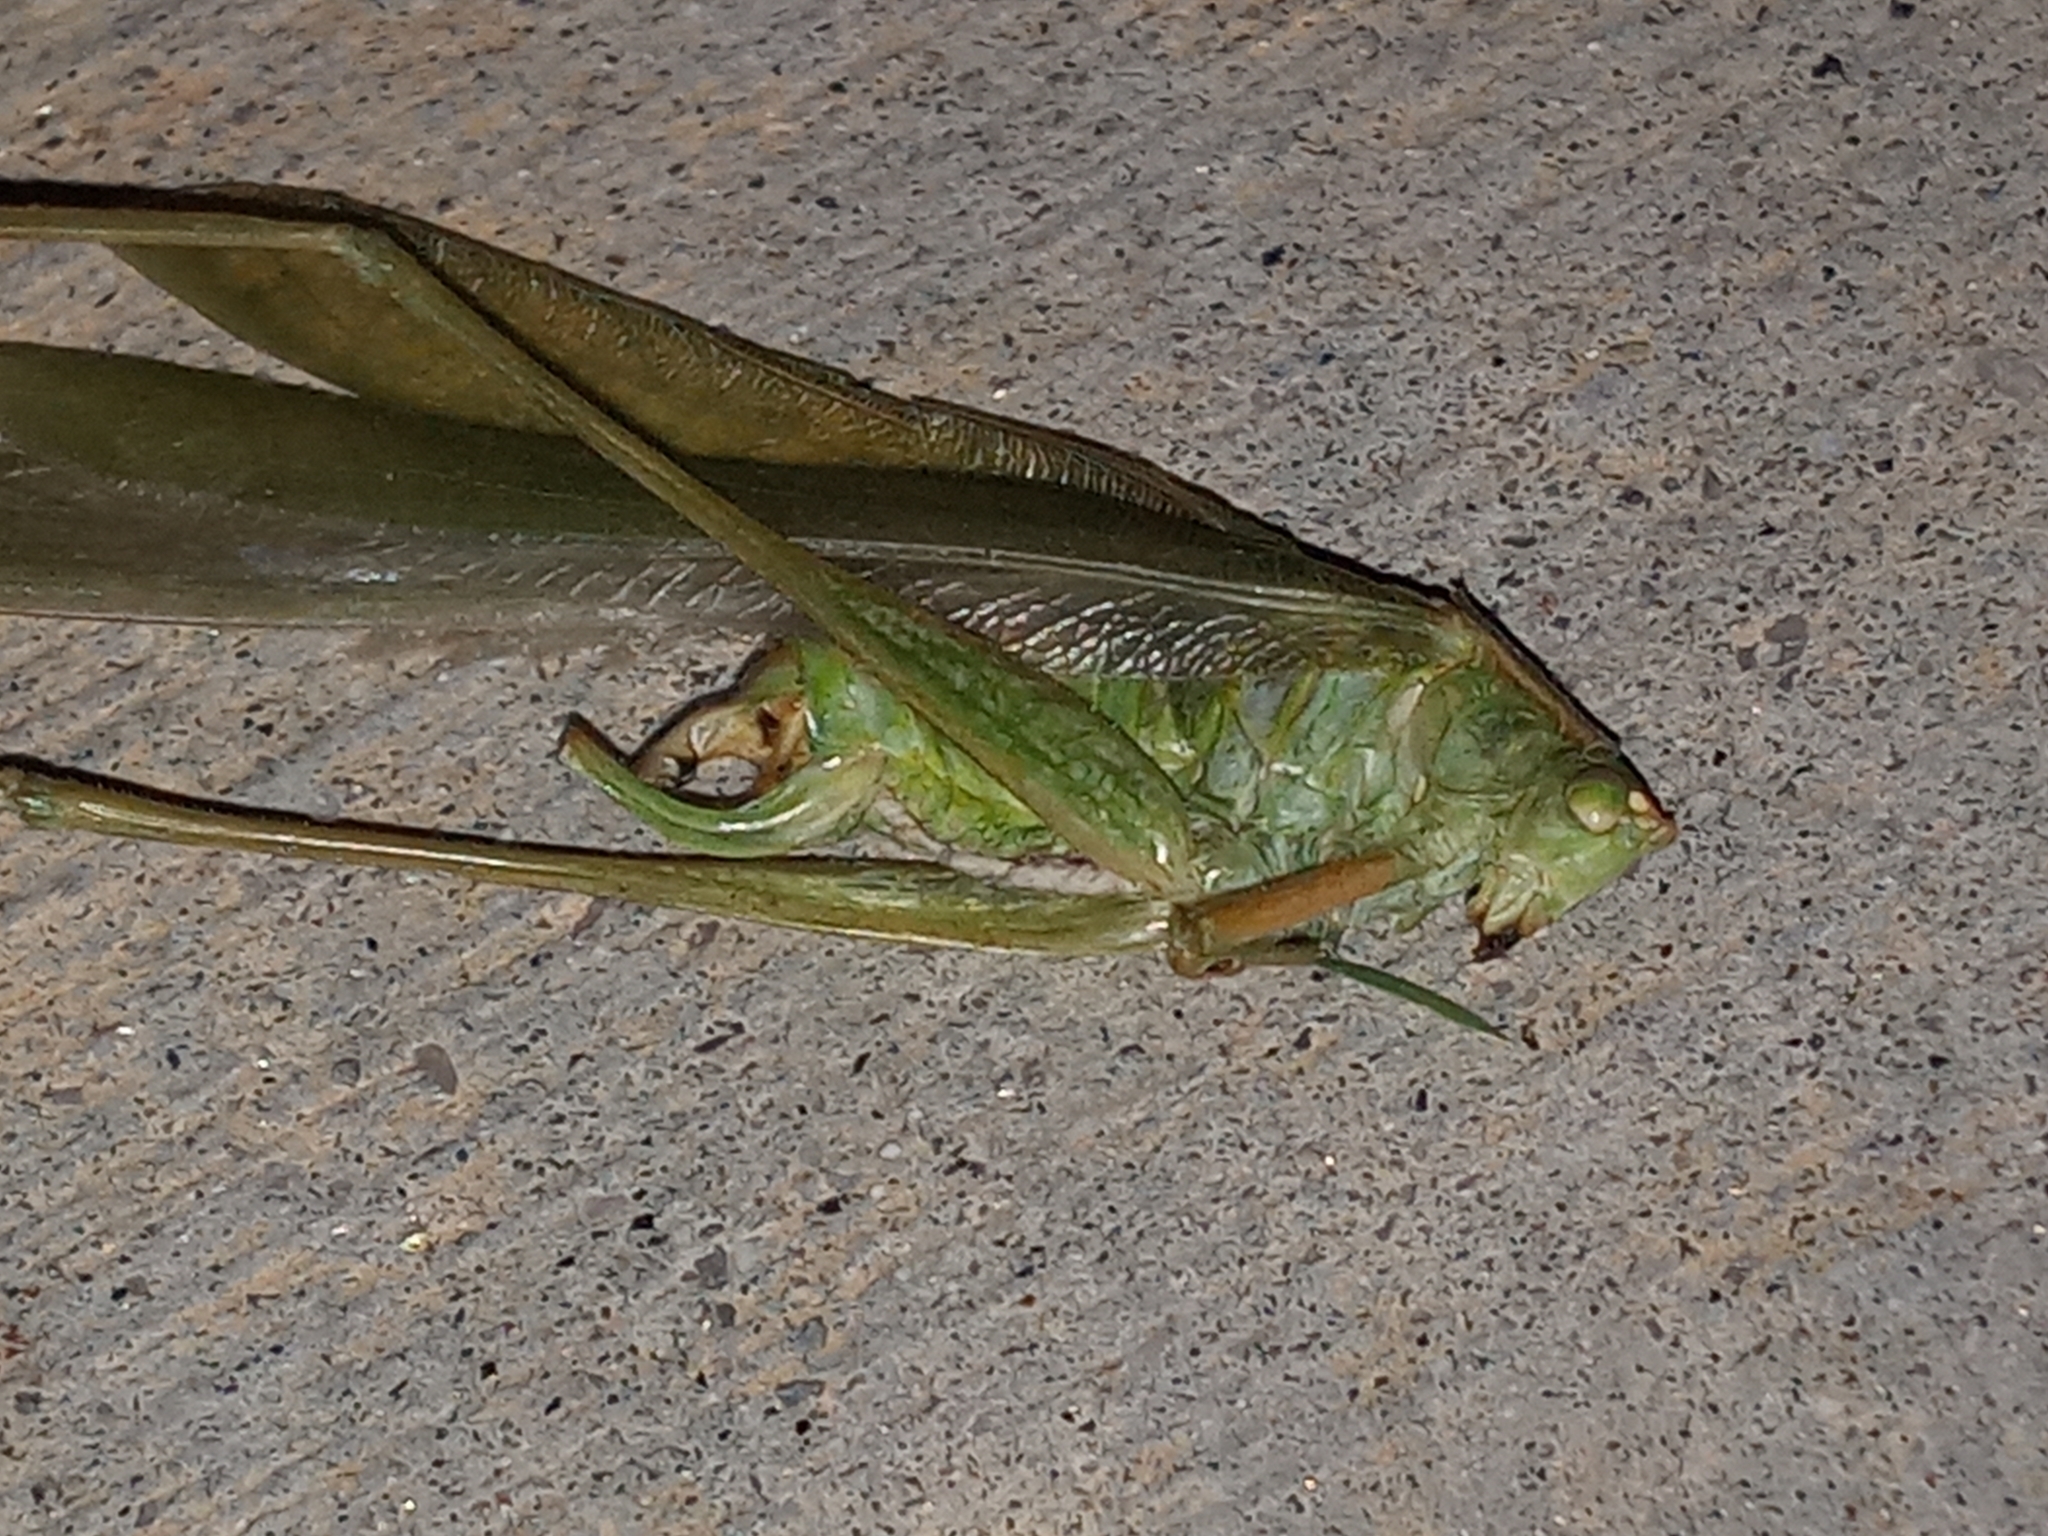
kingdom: Animalia
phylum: Arthropoda
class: Insecta
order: Orthoptera
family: Tettigoniidae
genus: Scudderia
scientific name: Scudderia mexicana
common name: Mexican bush katydid
